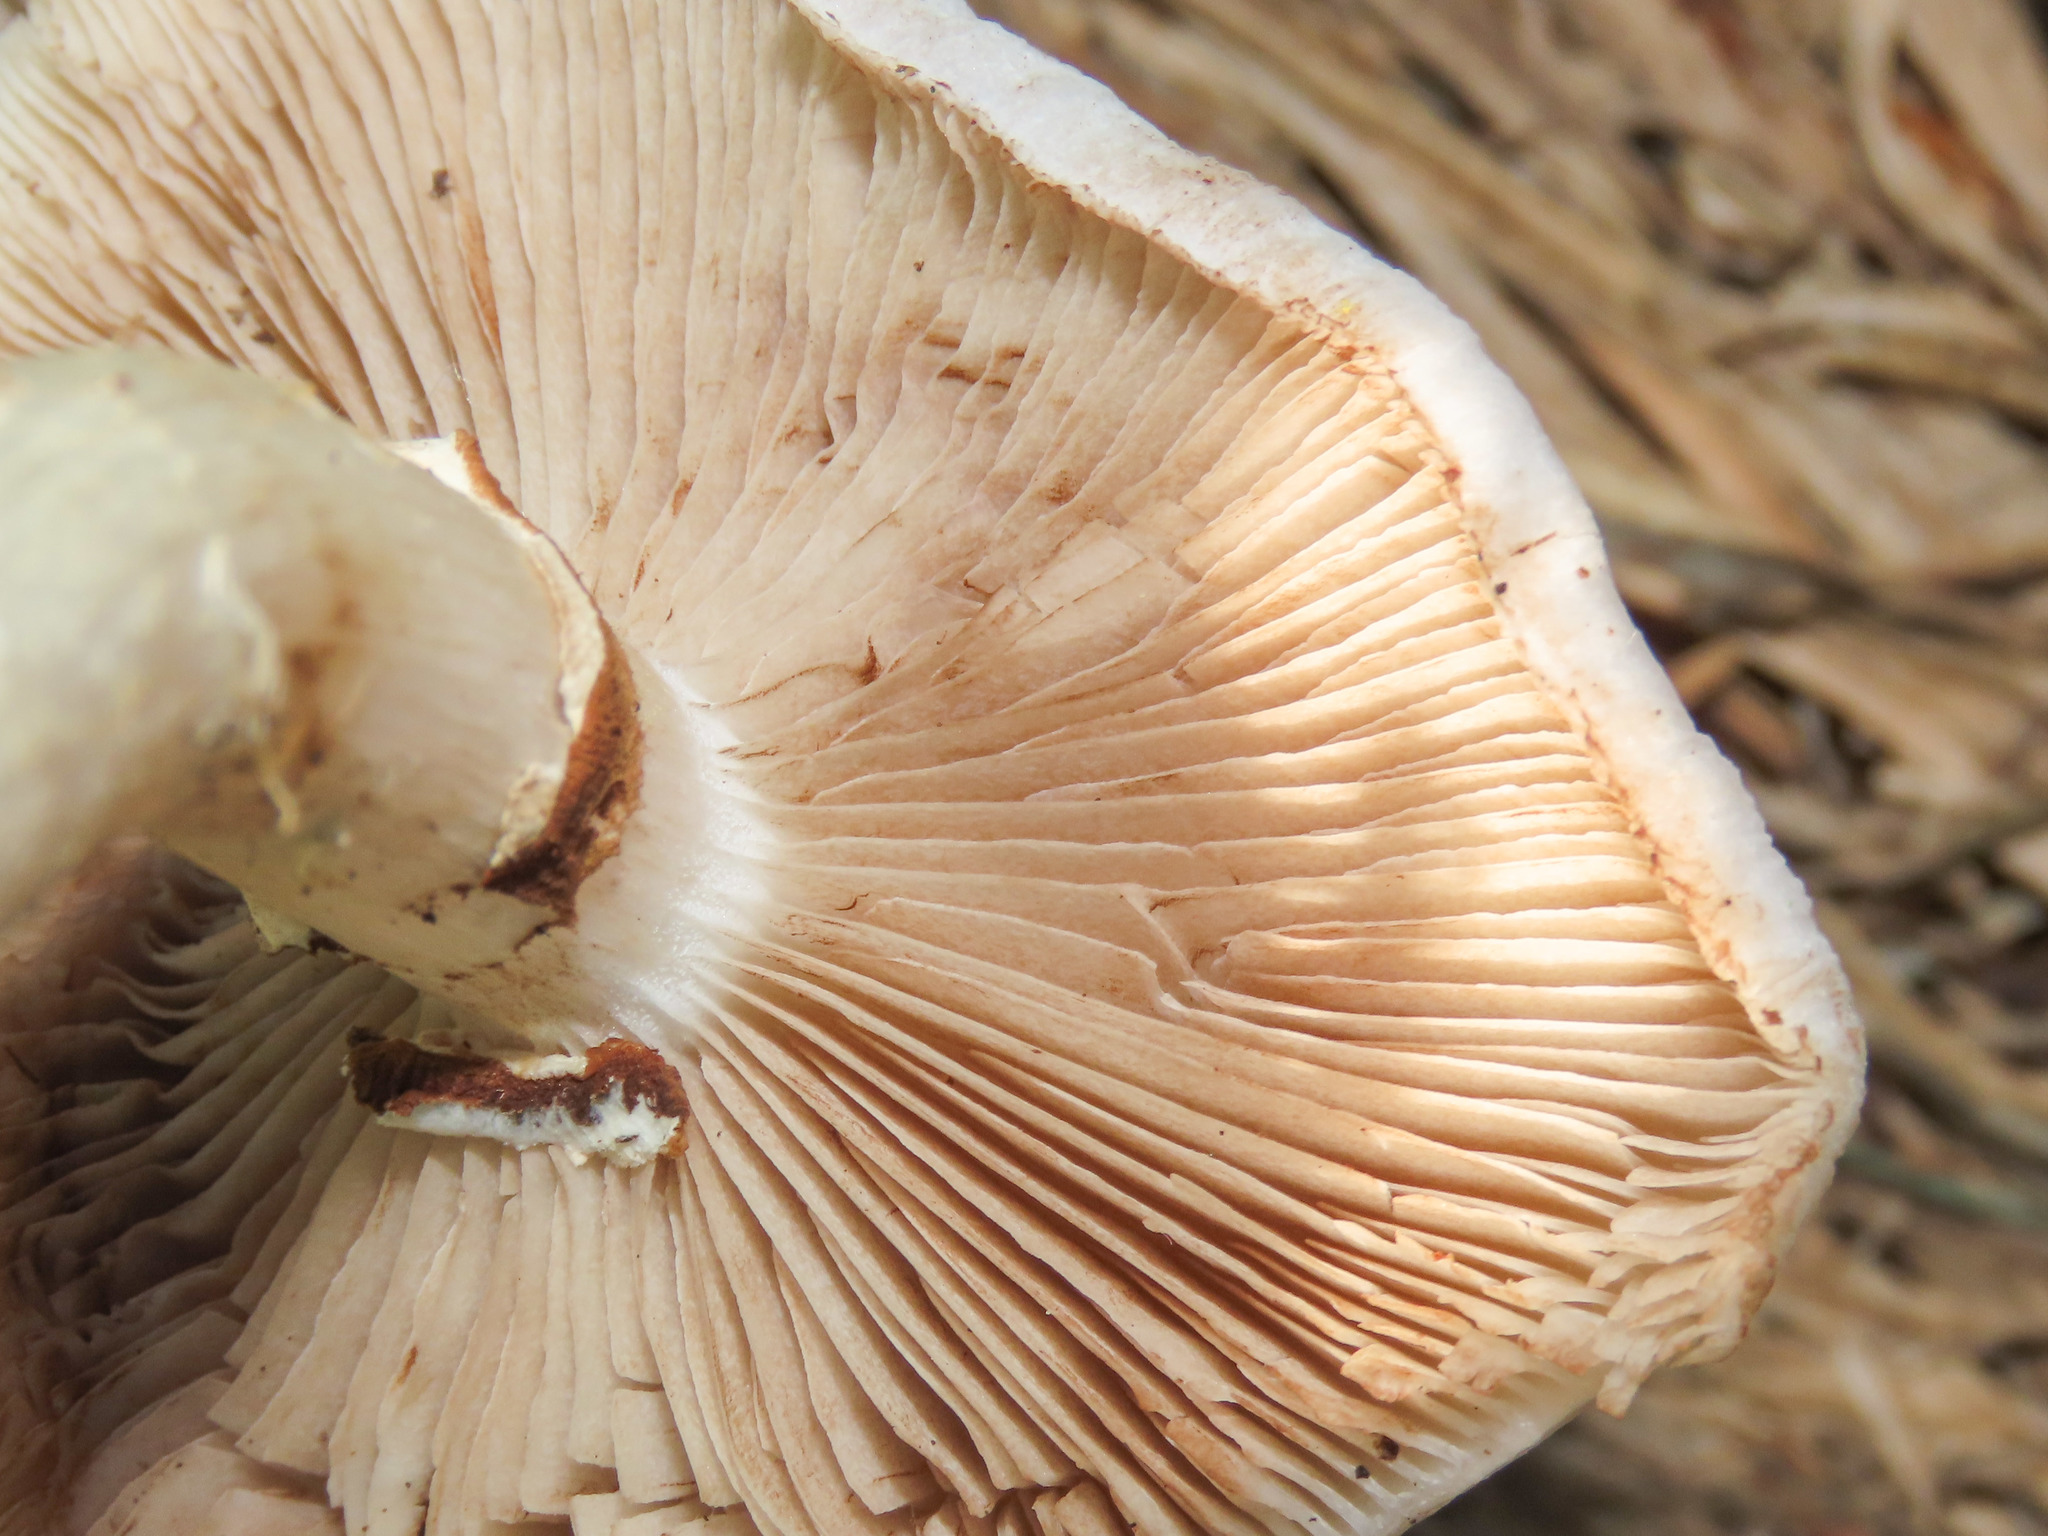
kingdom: Fungi
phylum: Basidiomycota
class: Agaricomycetes
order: Agaricales
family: Tubariaceae
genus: Cyclocybe
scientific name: Cyclocybe cylindracea
